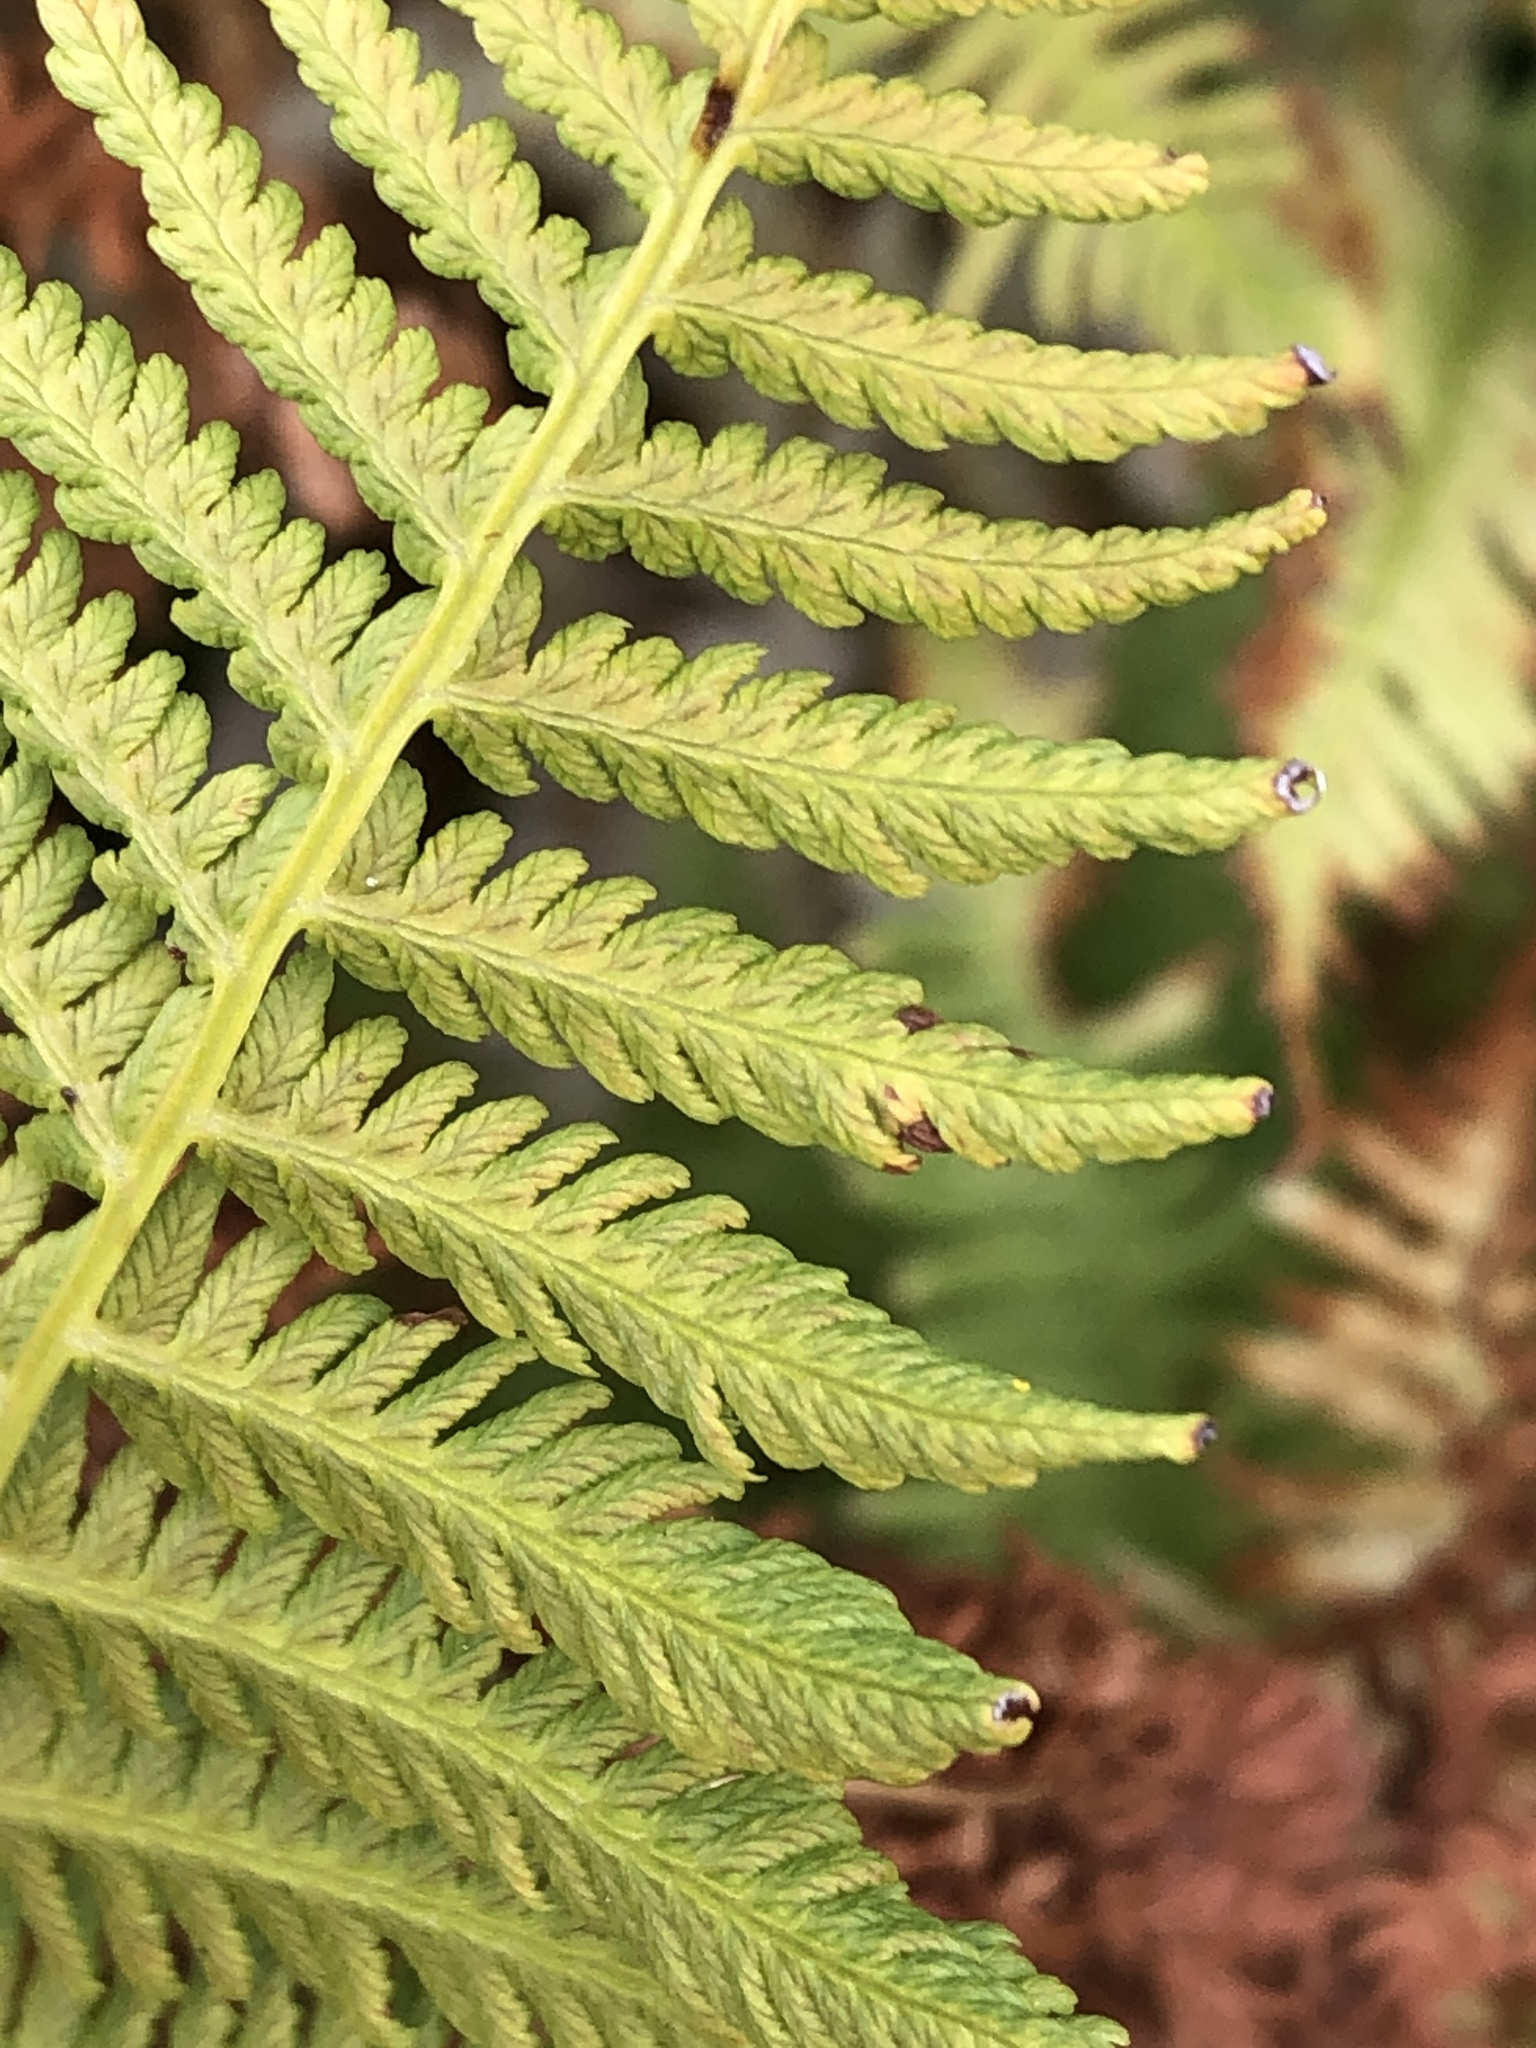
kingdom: Plantae
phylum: Tracheophyta
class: Polypodiopsida
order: Polypodiales
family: Athyriaceae
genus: Athyrium
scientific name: Athyrium angustum
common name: Northern lady fern
